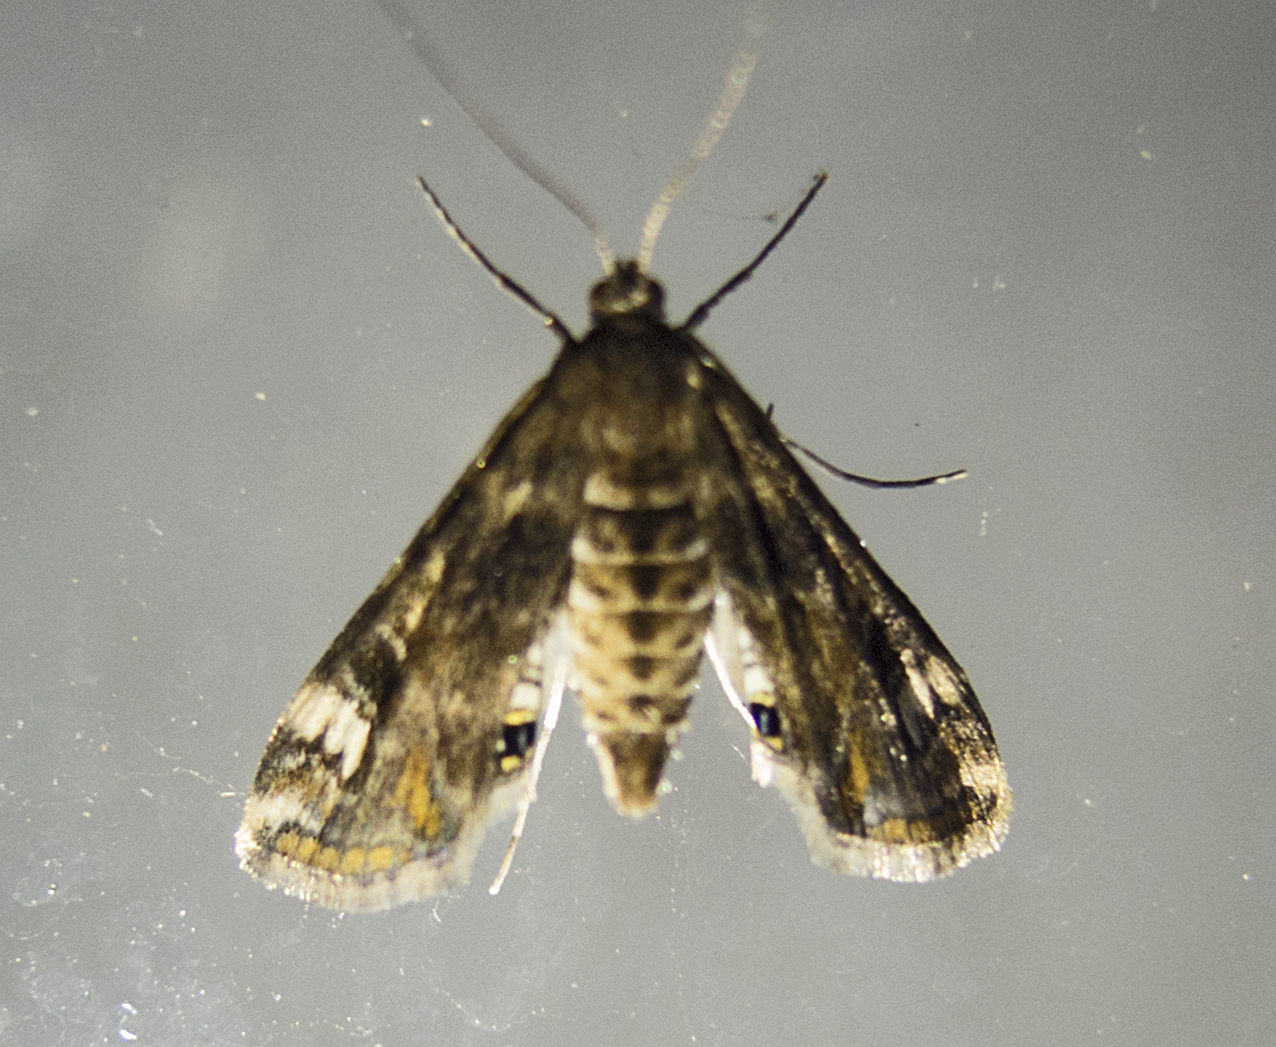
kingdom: Animalia
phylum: Arthropoda
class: Insecta
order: Lepidoptera
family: Crambidae
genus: Cataclysta
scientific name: Cataclysta lemnata
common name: Small china-mark
